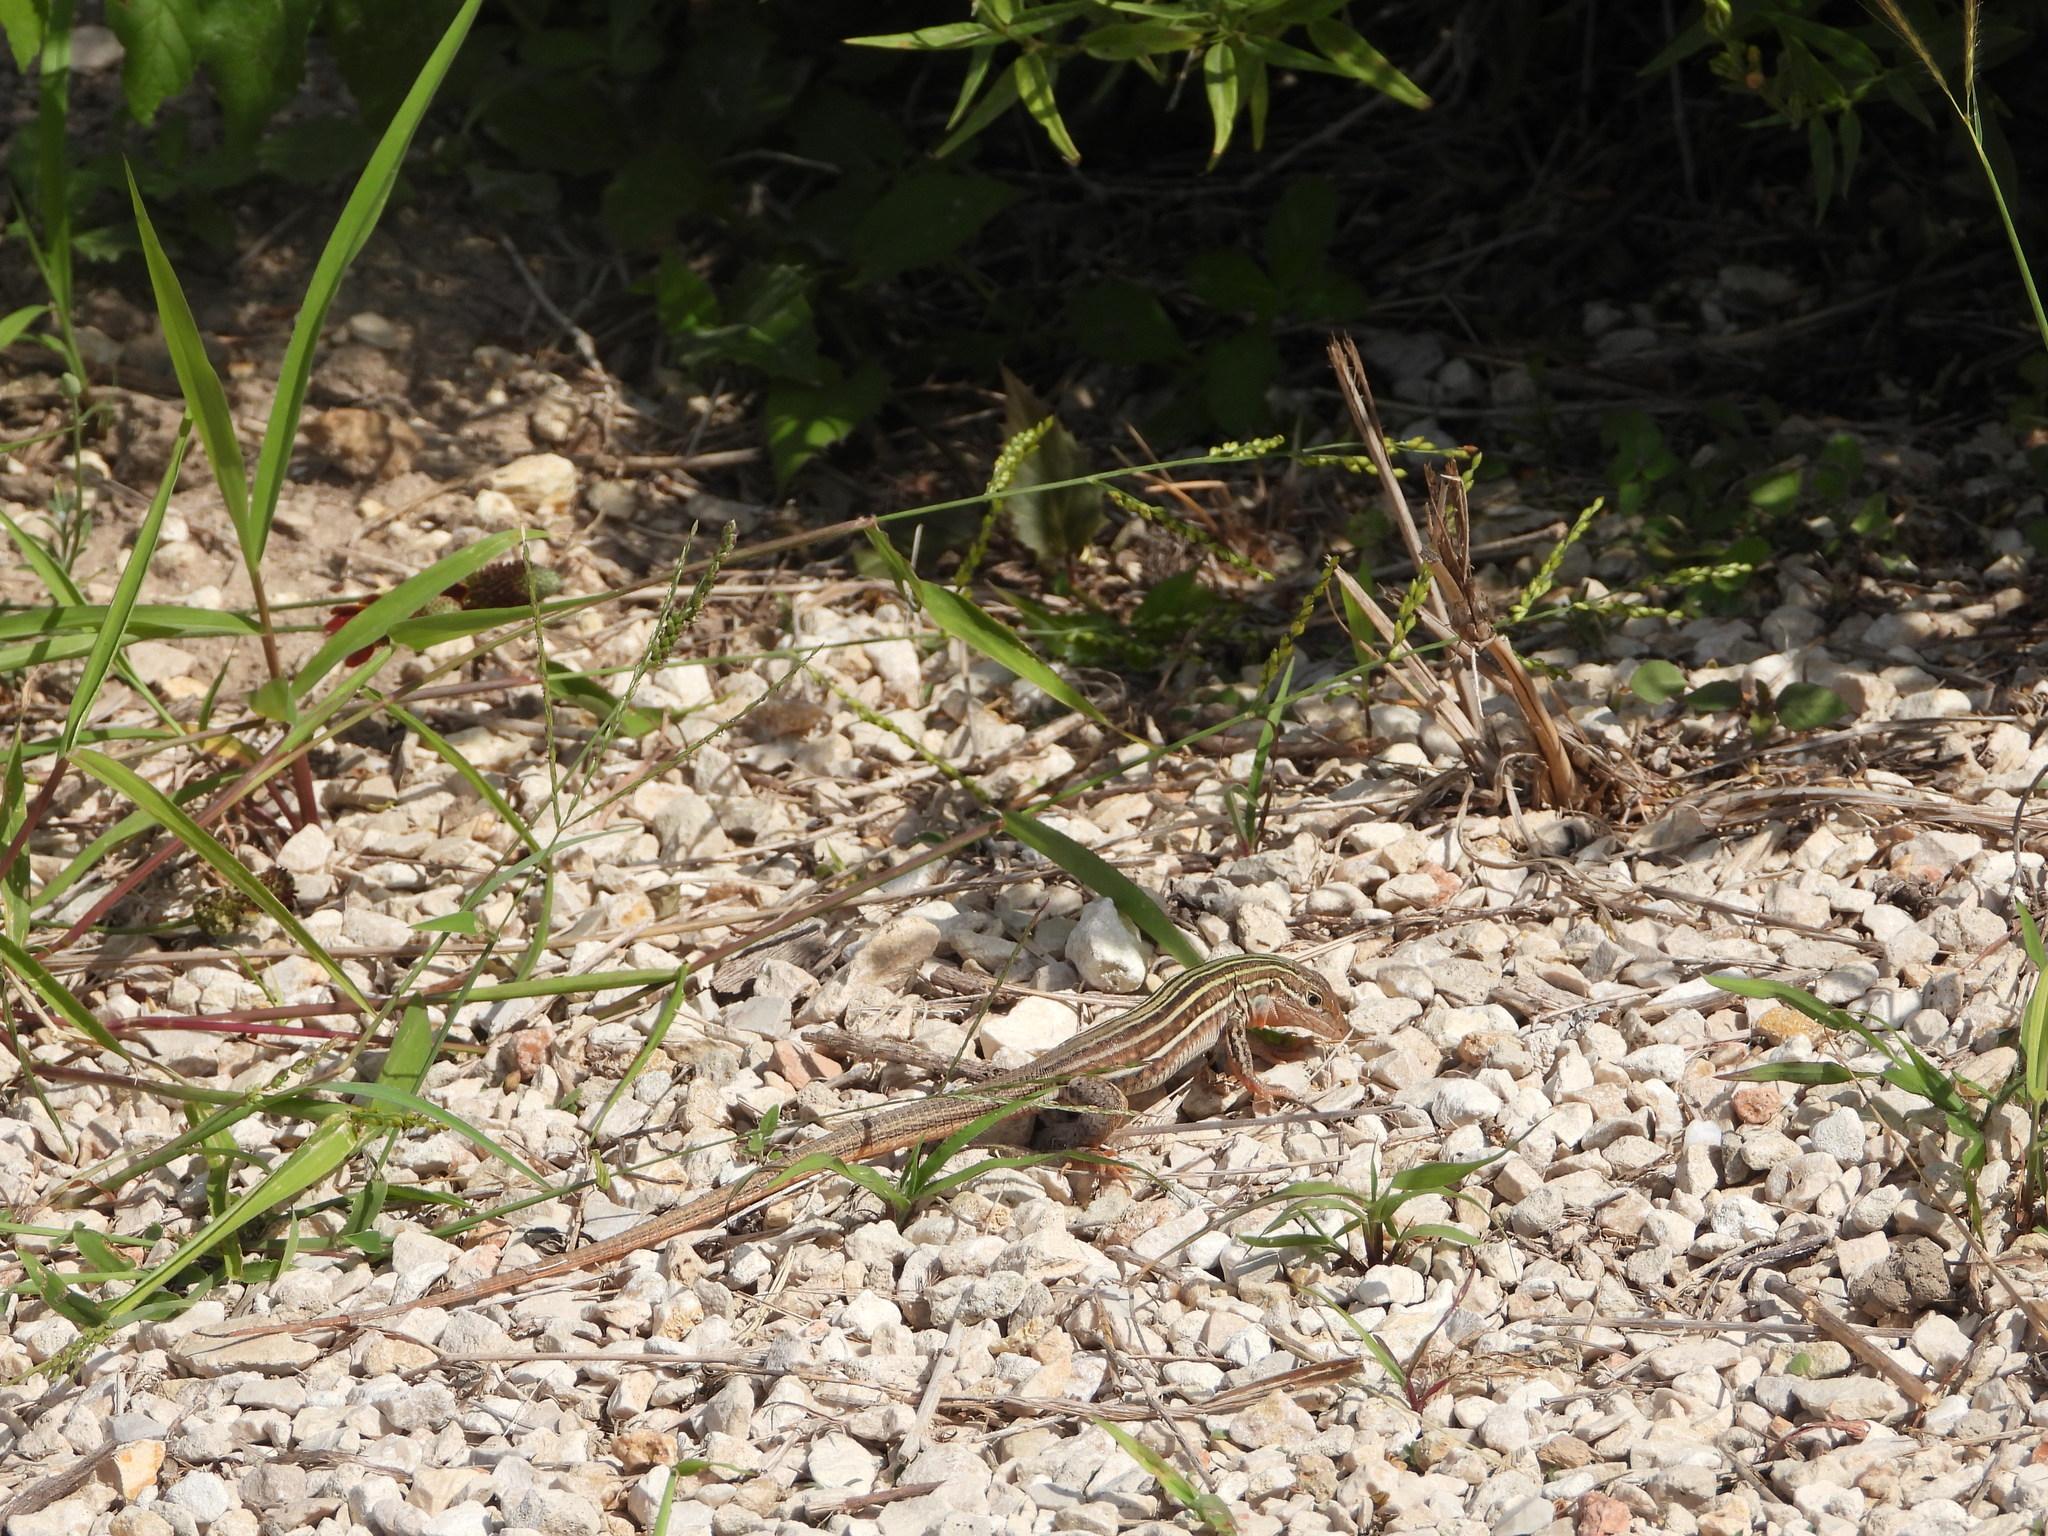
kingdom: Animalia
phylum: Chordata
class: Squamata
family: Teiidae
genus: Aspidoscelis
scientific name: Aspidoscelis gularis
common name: Eastern spotted whiptail
